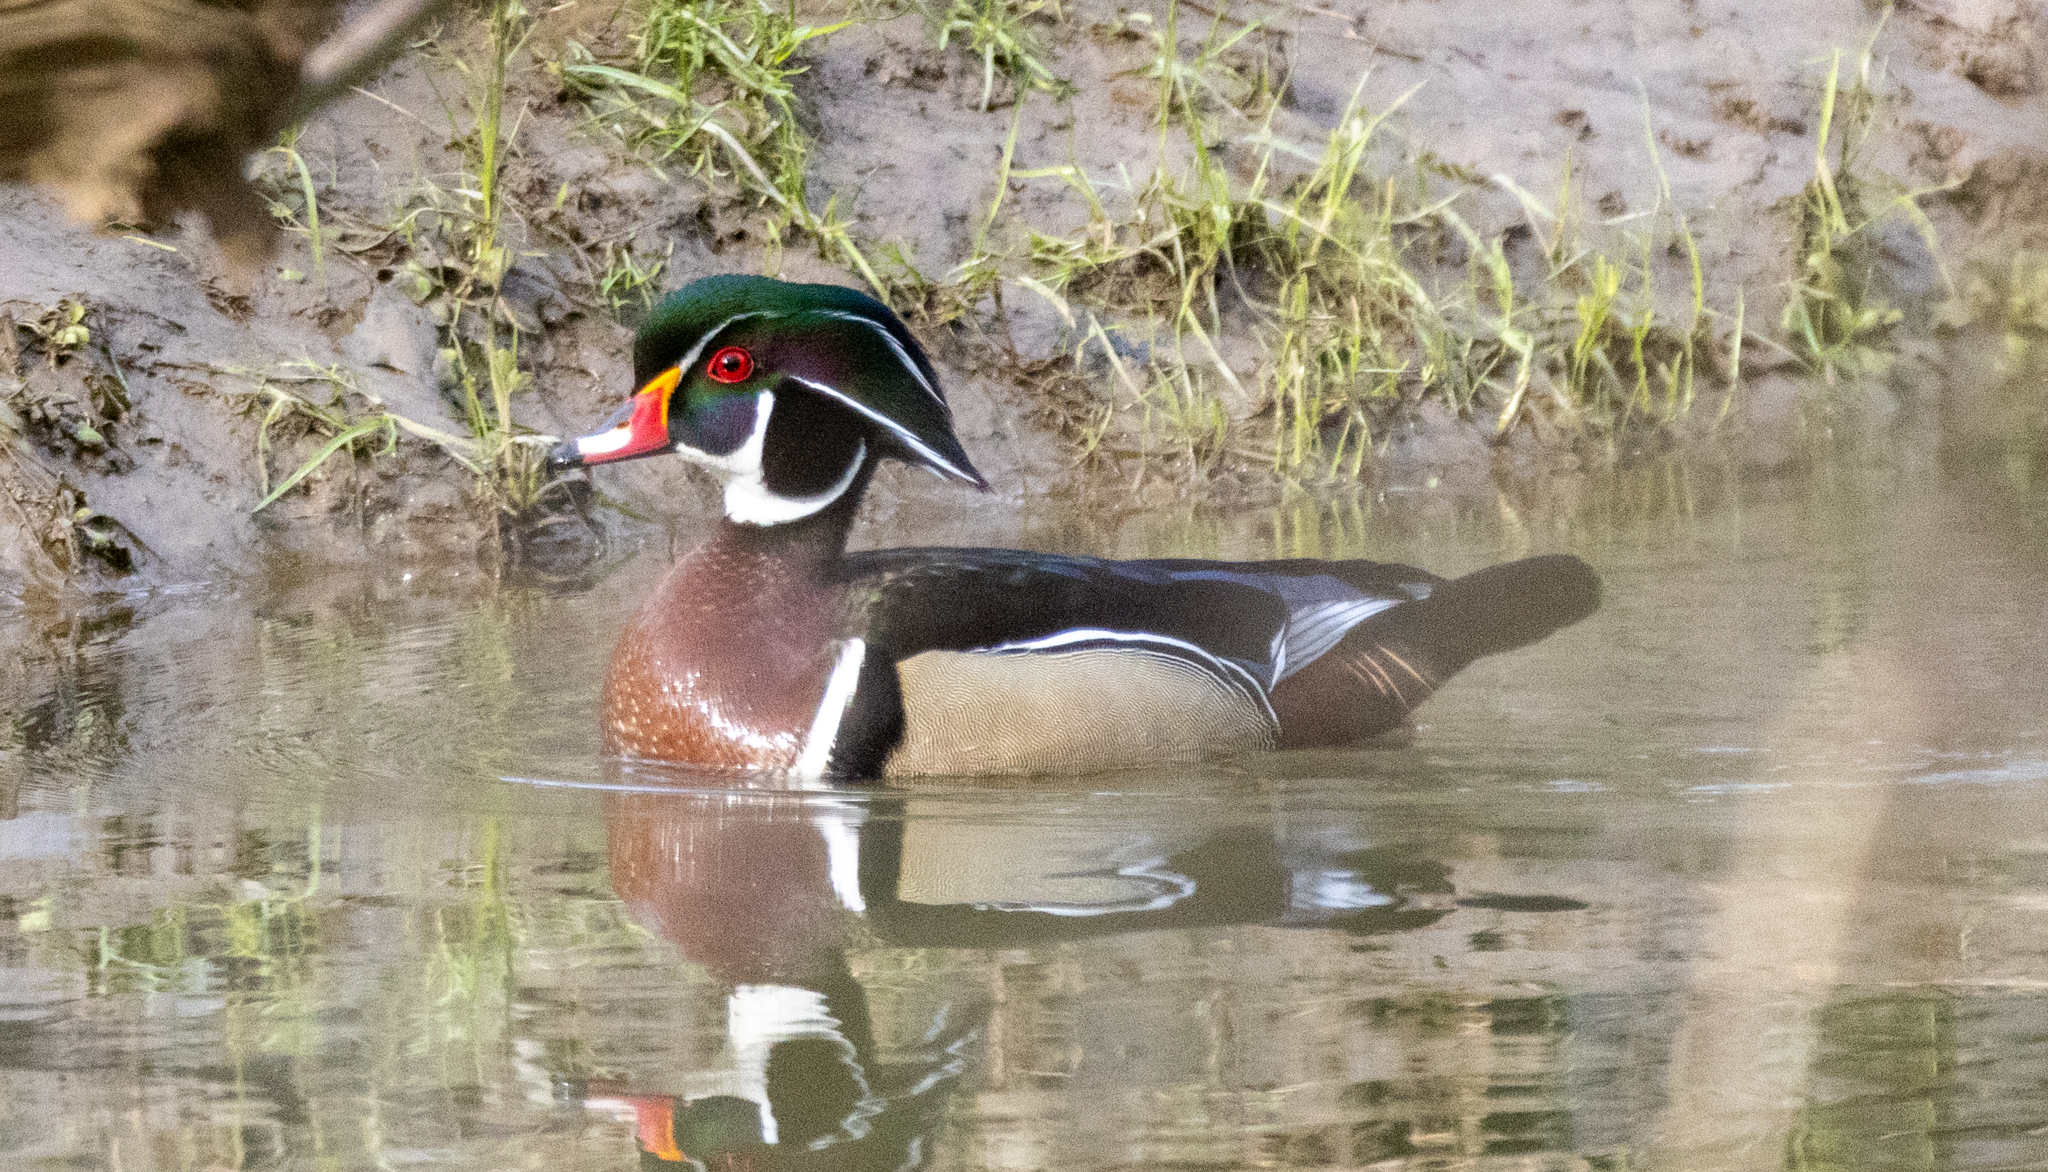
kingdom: Animalia
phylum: Chordata
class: Aves
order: Anseriformes
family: Anatidae
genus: Aix
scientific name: Aix sponsa
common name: Wood duck
